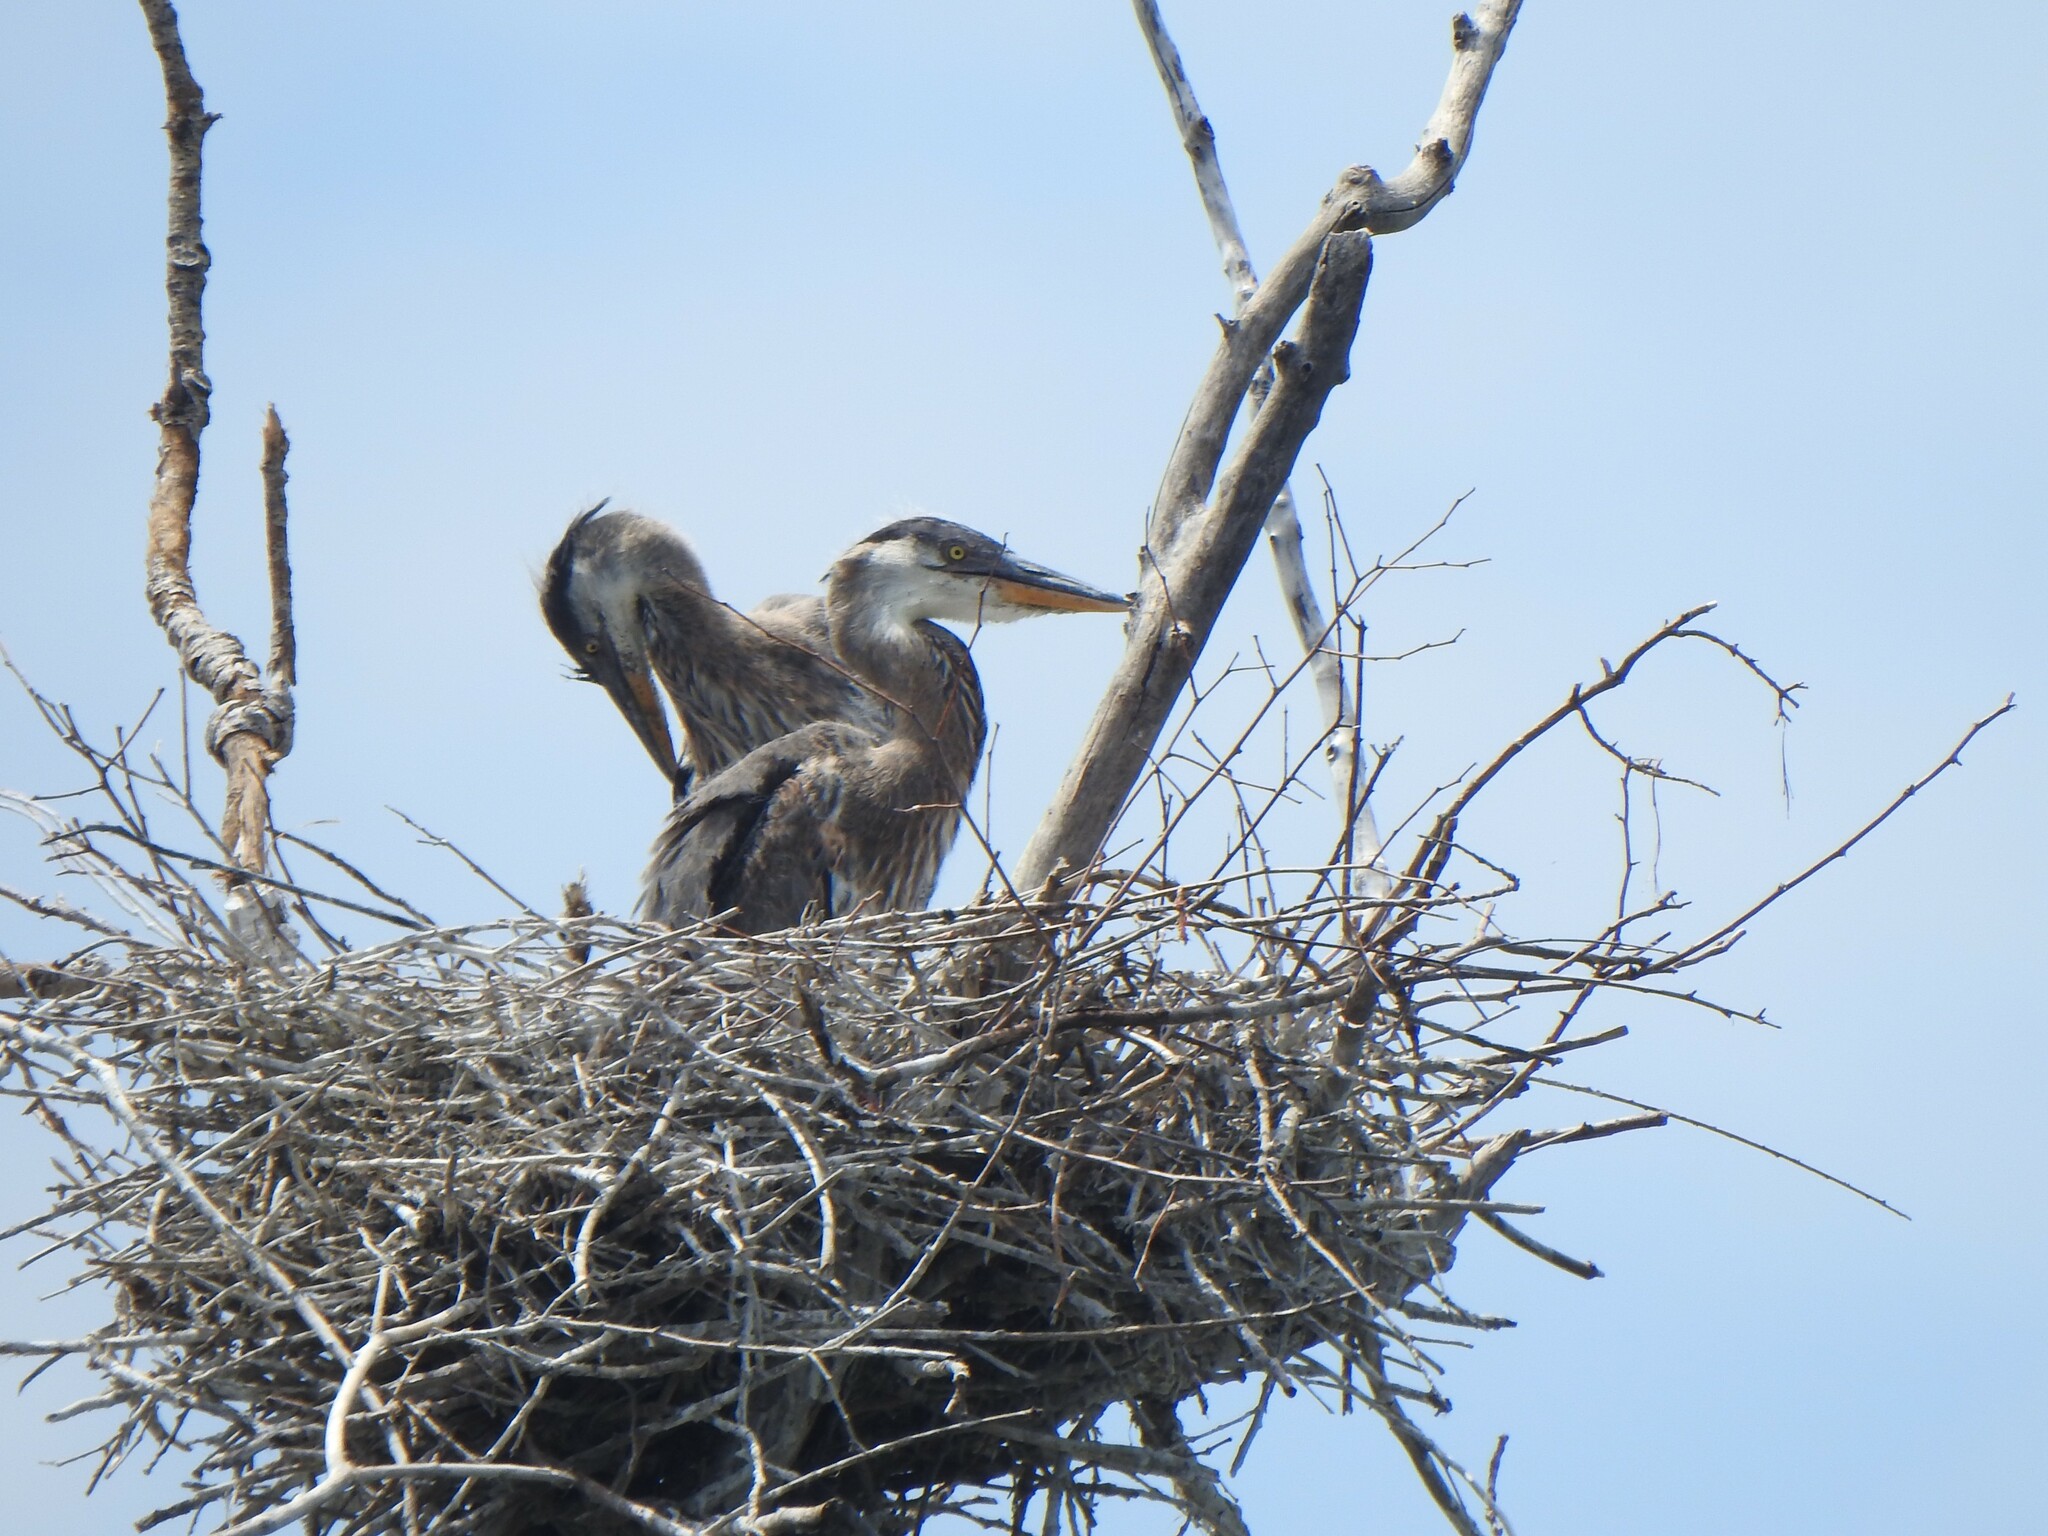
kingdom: Animalia
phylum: Chordata
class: Aves
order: Pelecaniformes
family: Ardeidae
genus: Ardea
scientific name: Ardea herodias
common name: Great blue heron
